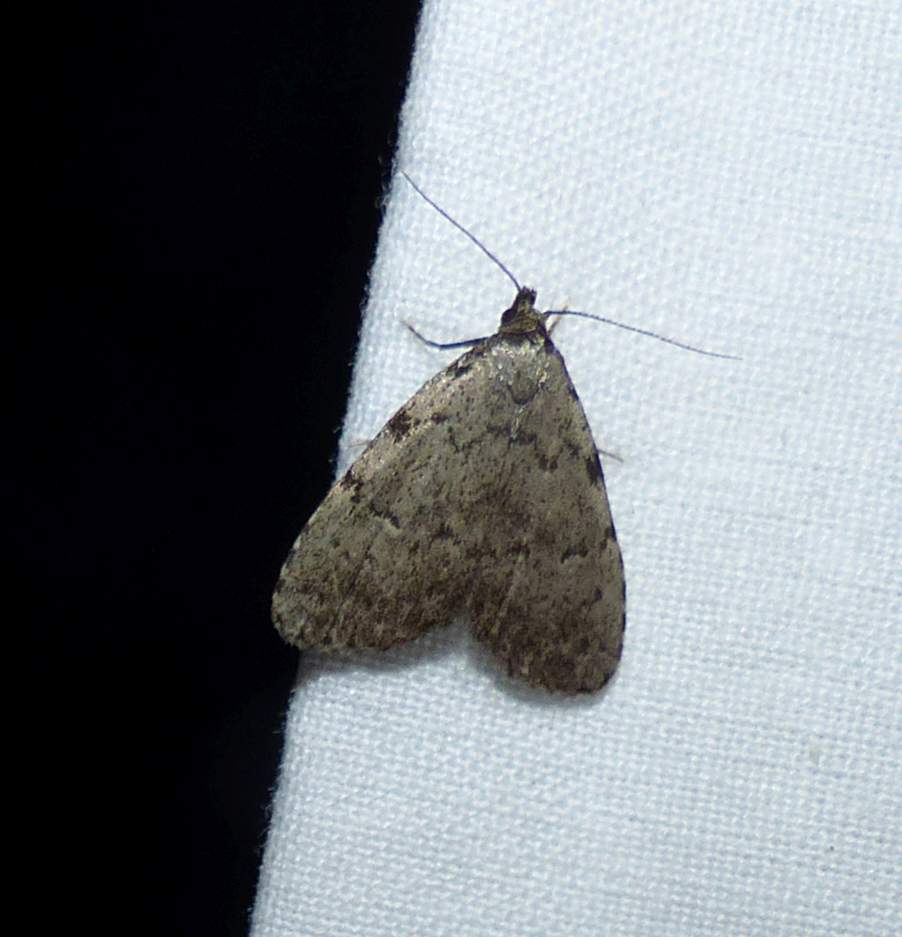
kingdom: Animalia
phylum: Arthropoda
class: Insecta
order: Lepidoptera
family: Erebidae
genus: Dyspyralis
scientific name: Dyspyralis puncticosta
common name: Spot-edged dyspyralis moth
